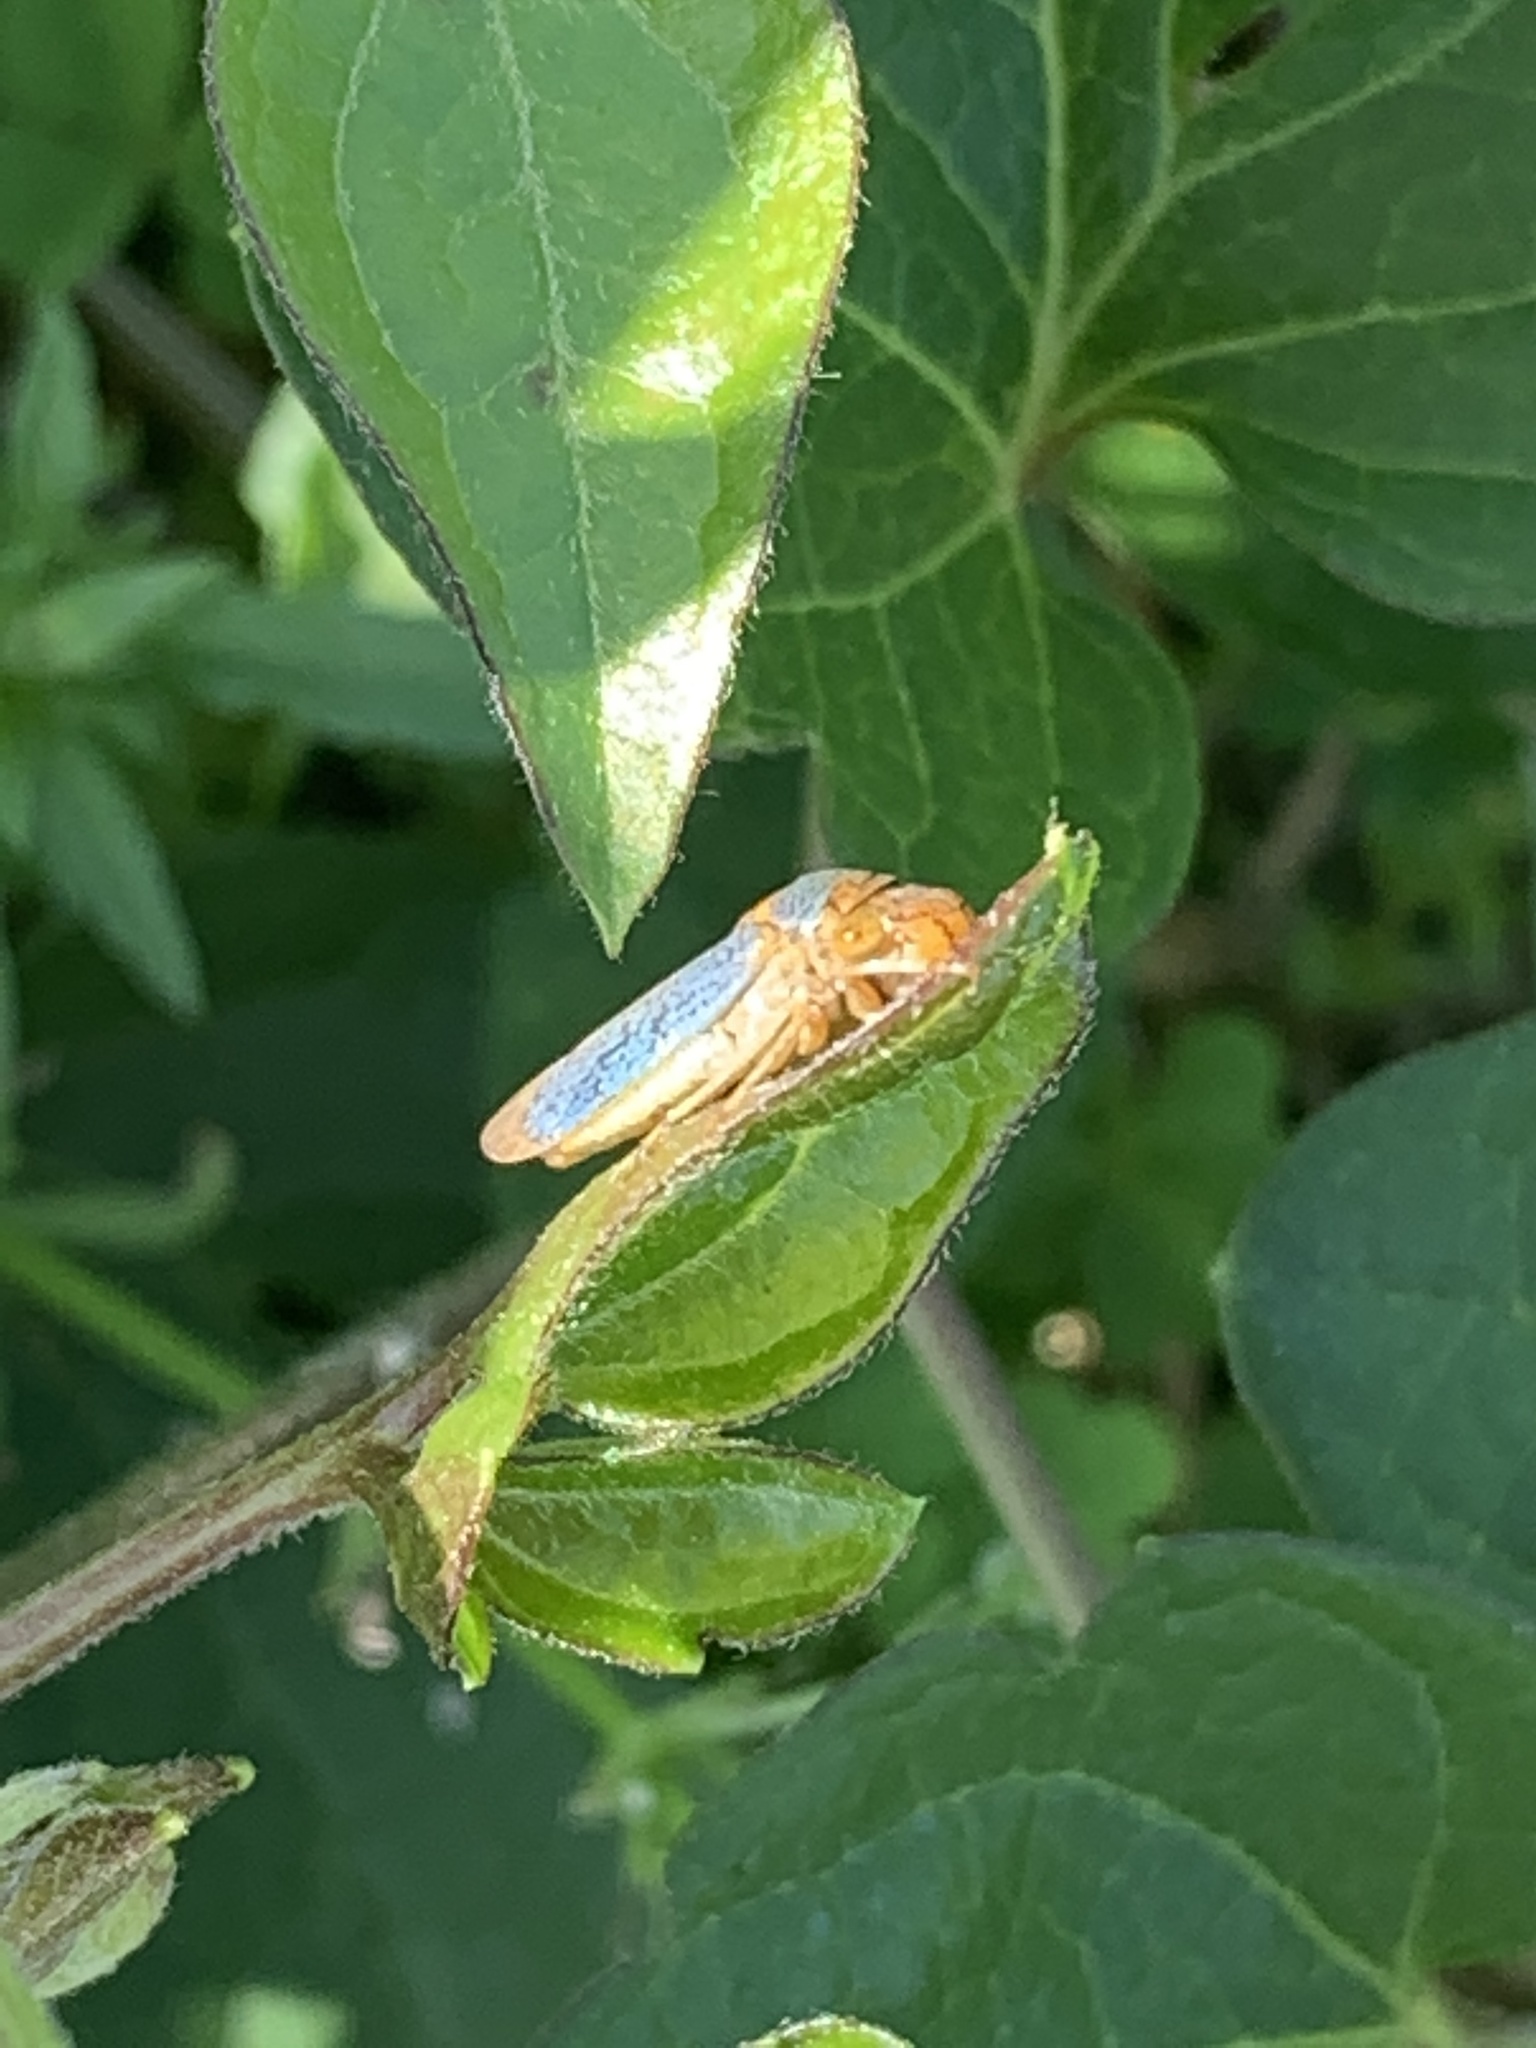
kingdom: Animalia
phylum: Arthropoda
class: Insecta
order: Hemiptera
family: Cicadellidae
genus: Oncometopia
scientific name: Oncometopia orbona
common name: Broad-headed sharpshooter
